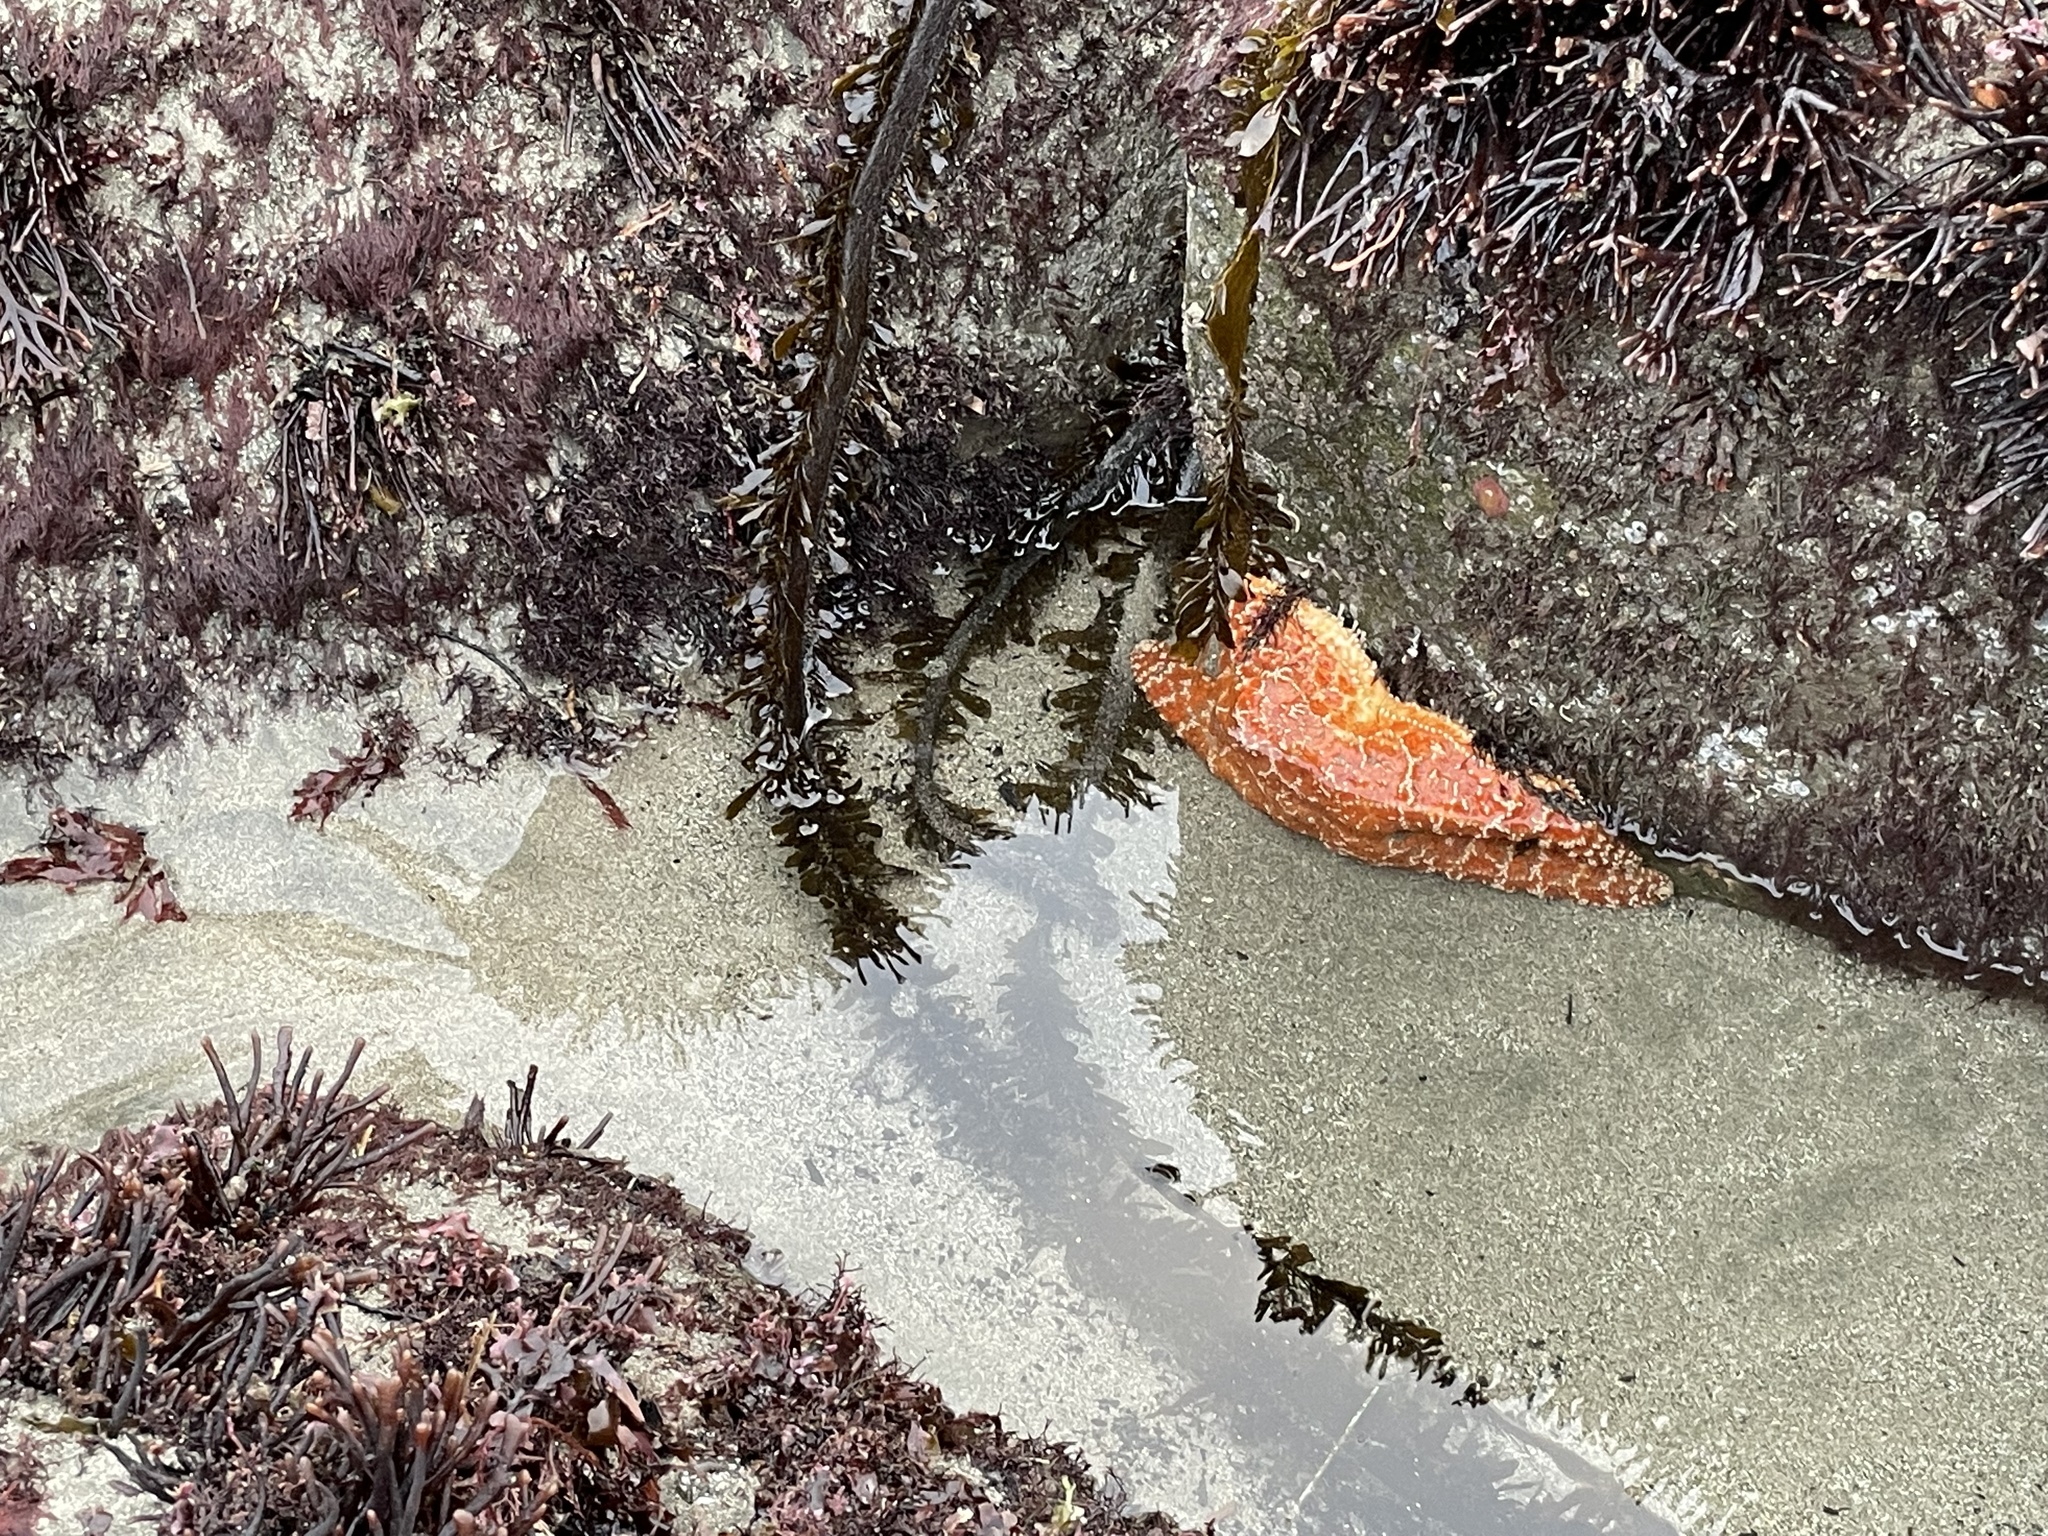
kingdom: Animalia
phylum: Echinodermata
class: Asteroidea
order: Forcipulatida
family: Asteriidae
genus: Pisaster
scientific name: Pisaster ochraceus
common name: Ochre stars
